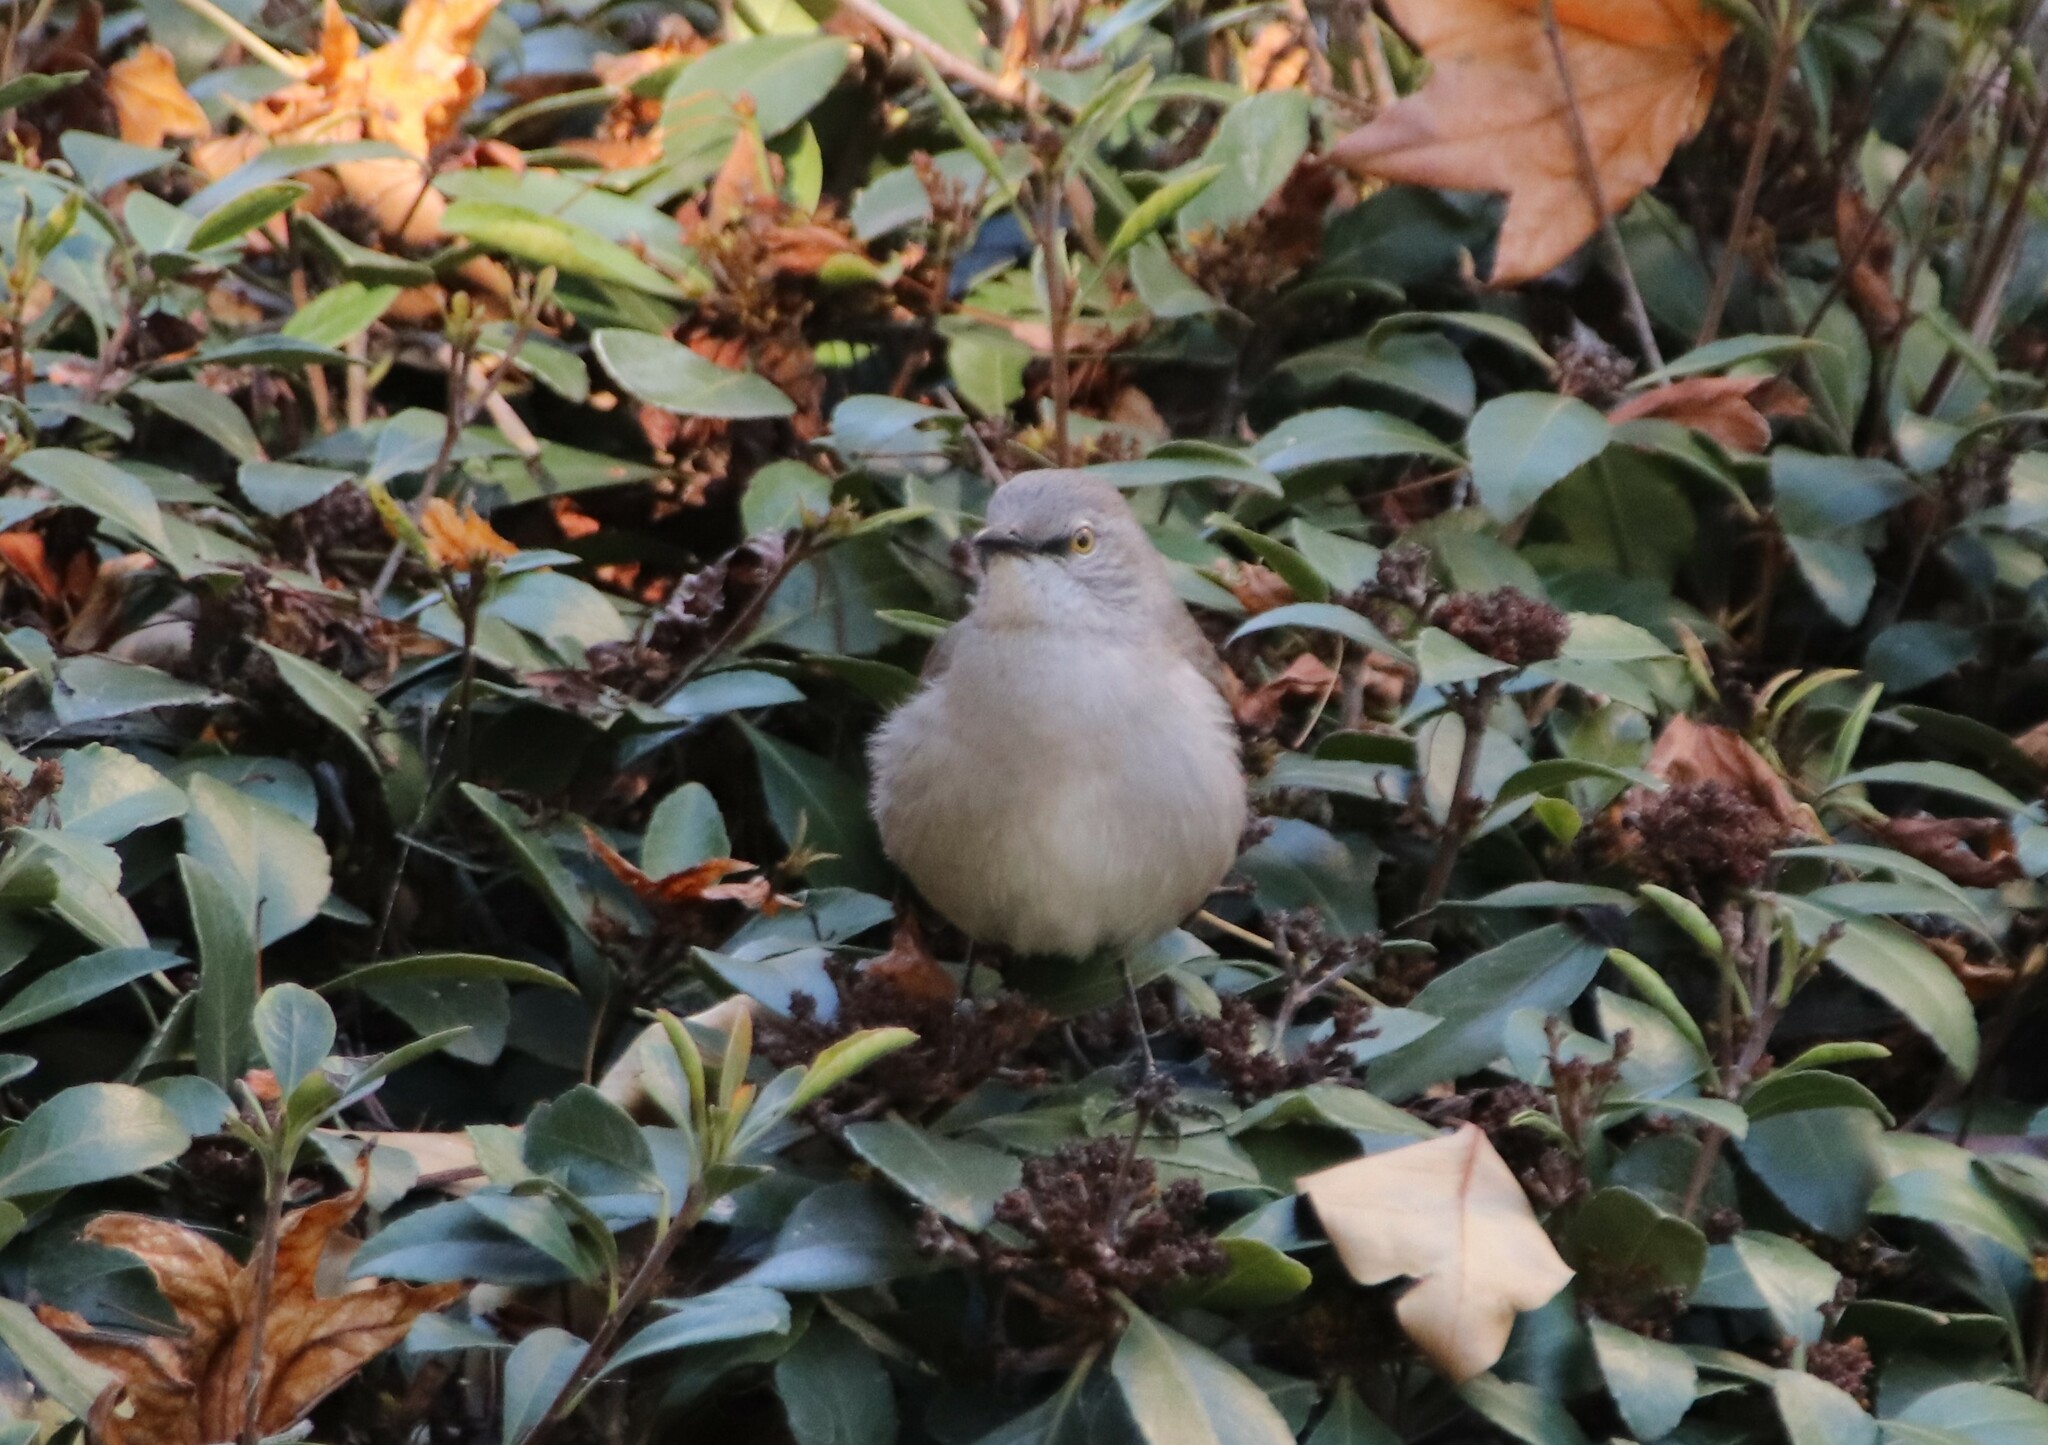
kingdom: Animalia
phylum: Chordata
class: Aves
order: Passeriformes
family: Mimidae
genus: Mimus
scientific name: Mimus polyglottos
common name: Northern mockingbird
